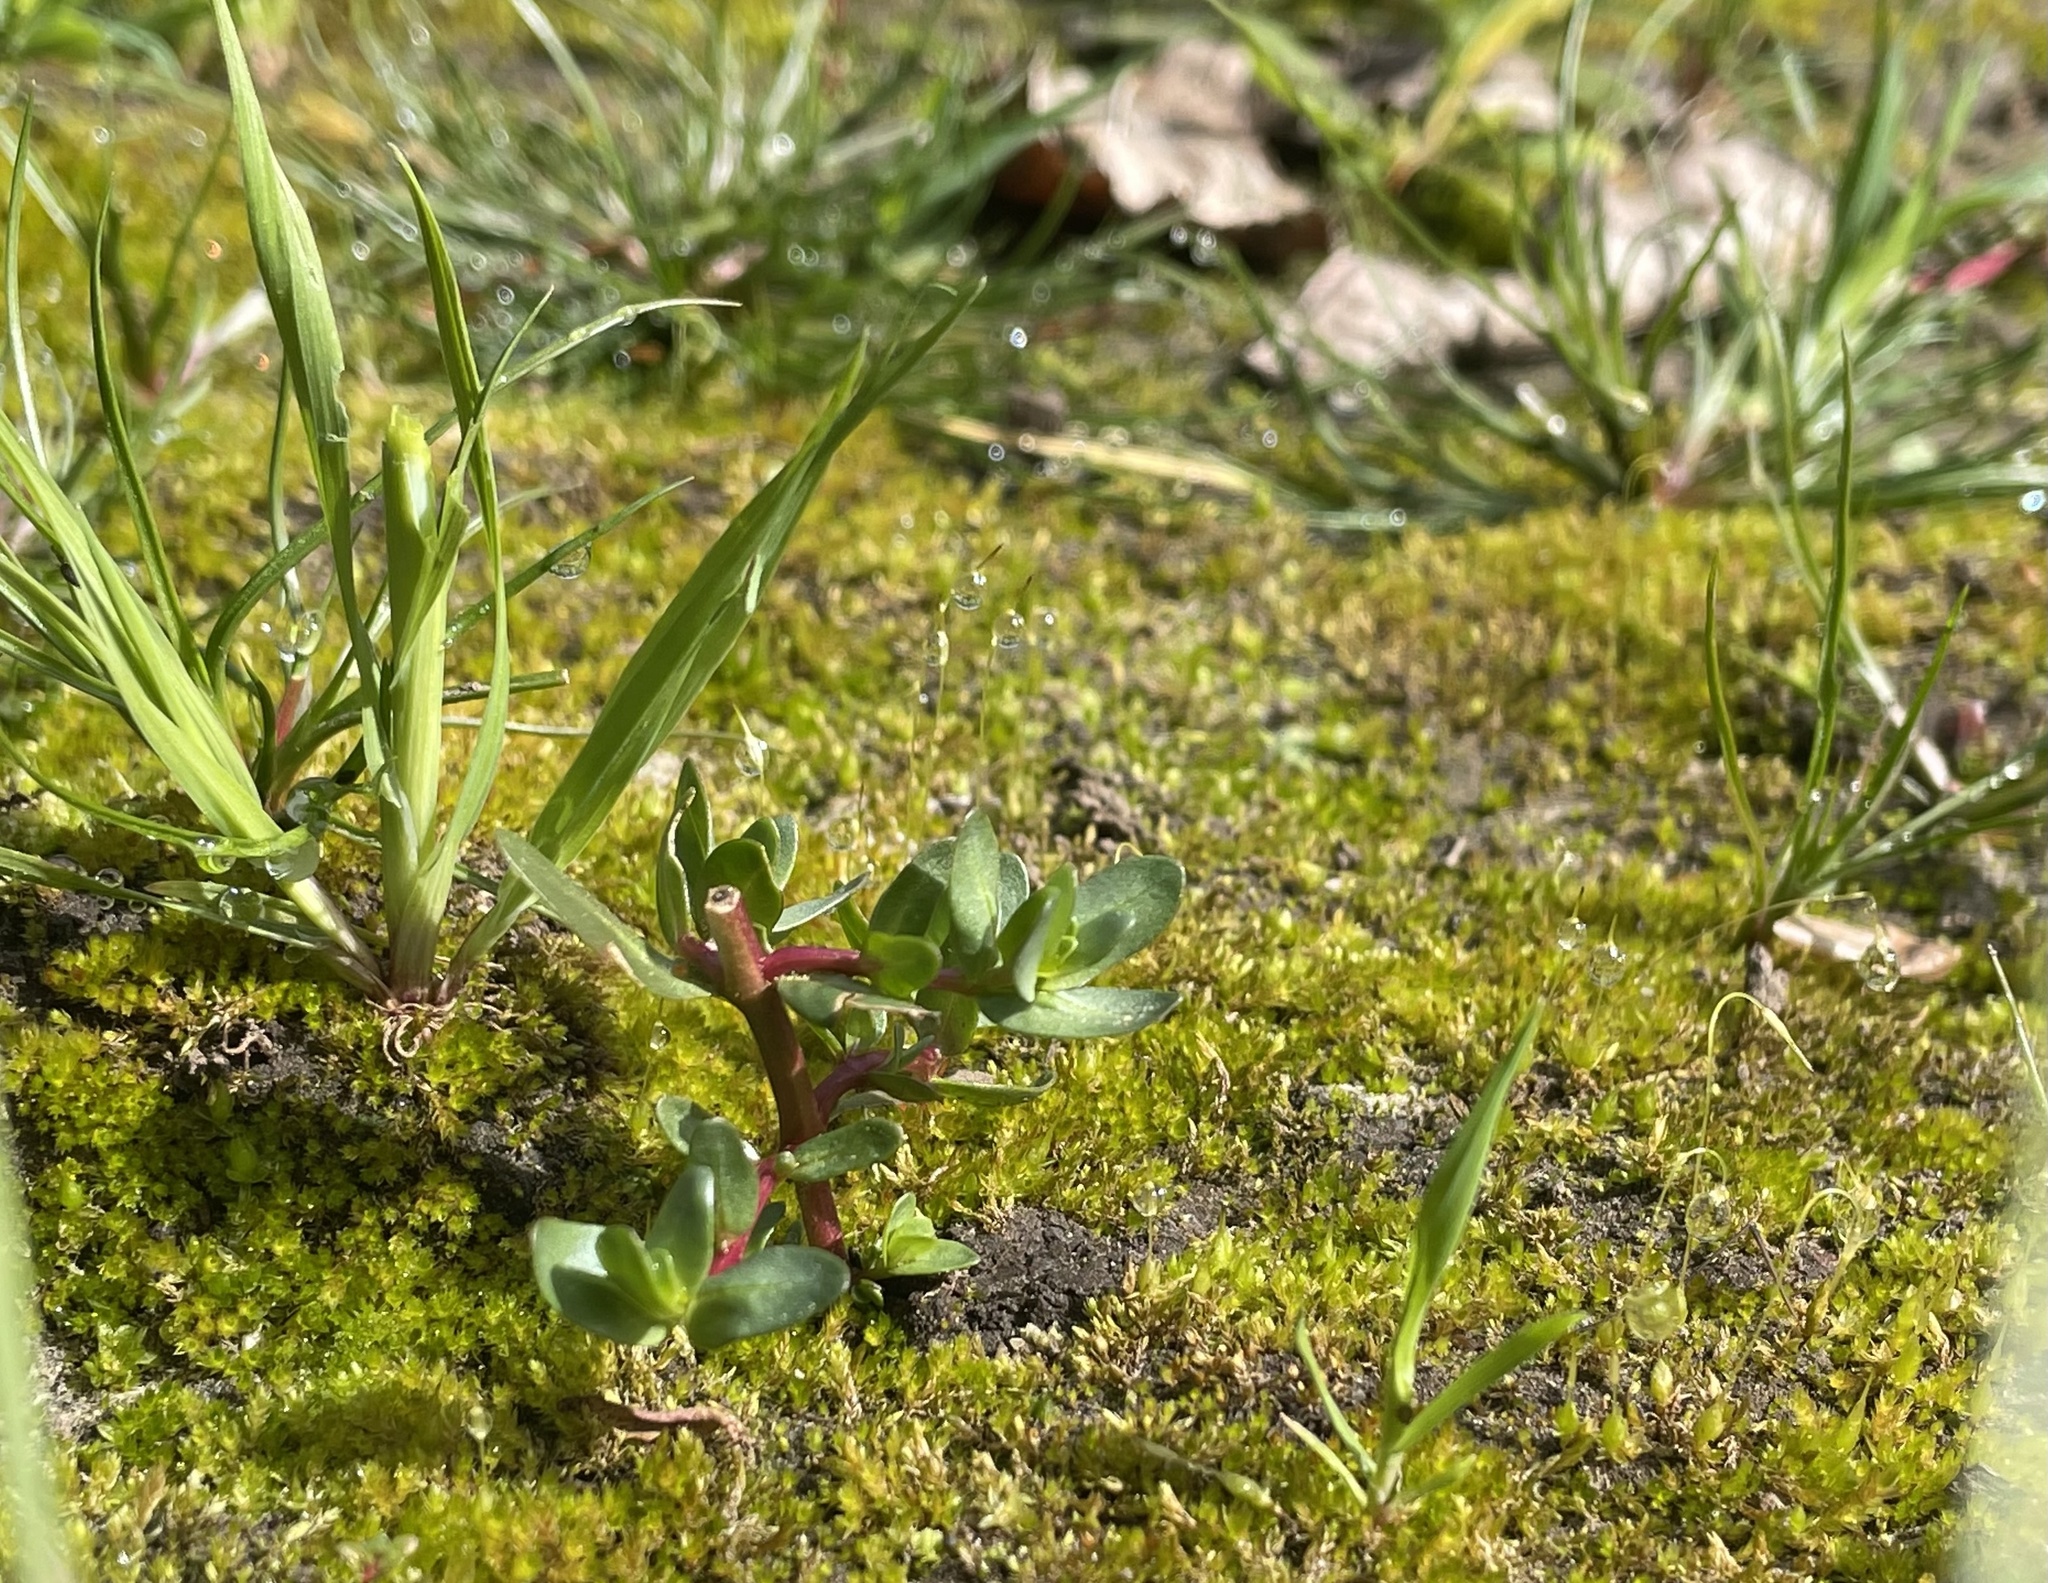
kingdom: Plantae
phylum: Tracheophyta
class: Magnoliopsida
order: Caryophyllales
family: Portulacaceae
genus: Portulaca
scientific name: Portulaca oleracea
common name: Common purslane
